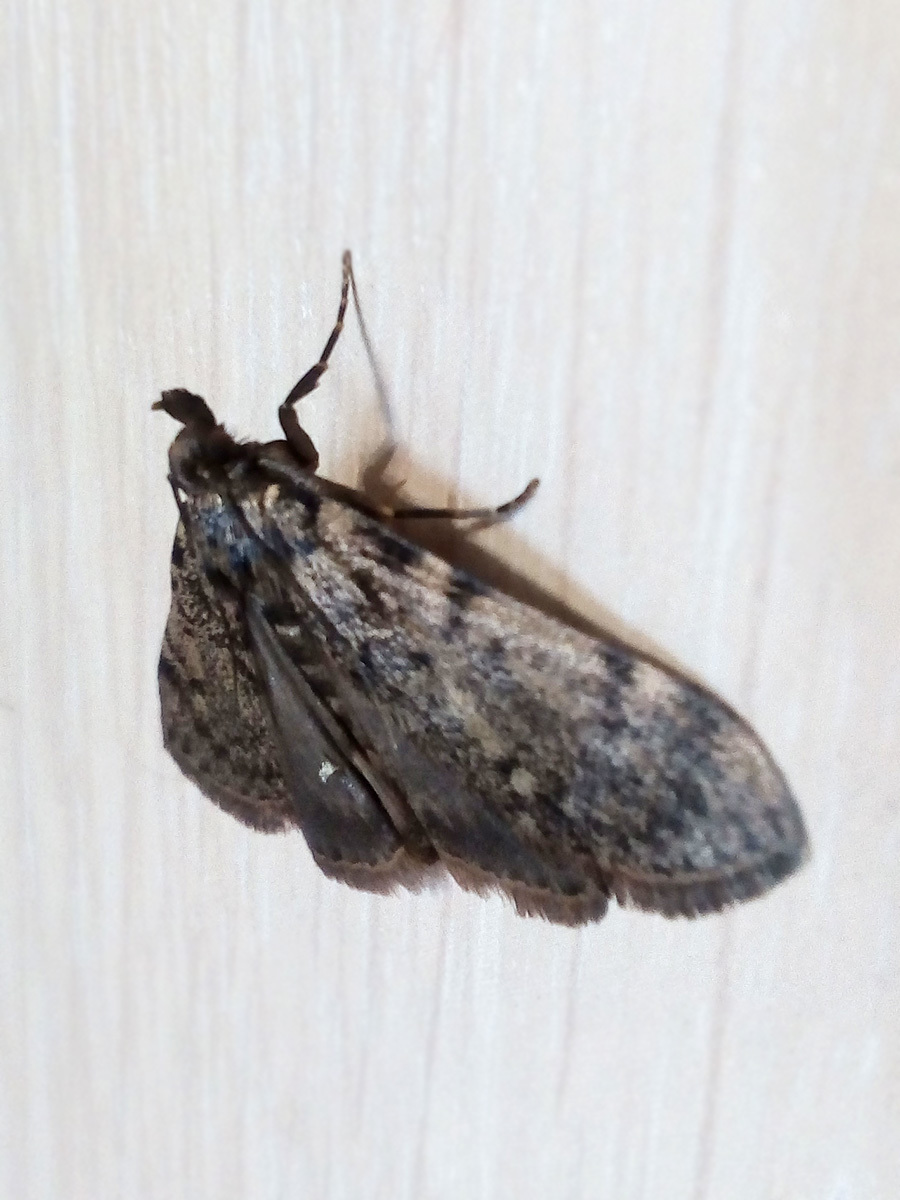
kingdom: Animalia
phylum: Arthropoda
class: Insecta
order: Lepidoptera
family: Pyralidae
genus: Aglossa
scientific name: Aglossa pinguinalis
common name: Large tabby
